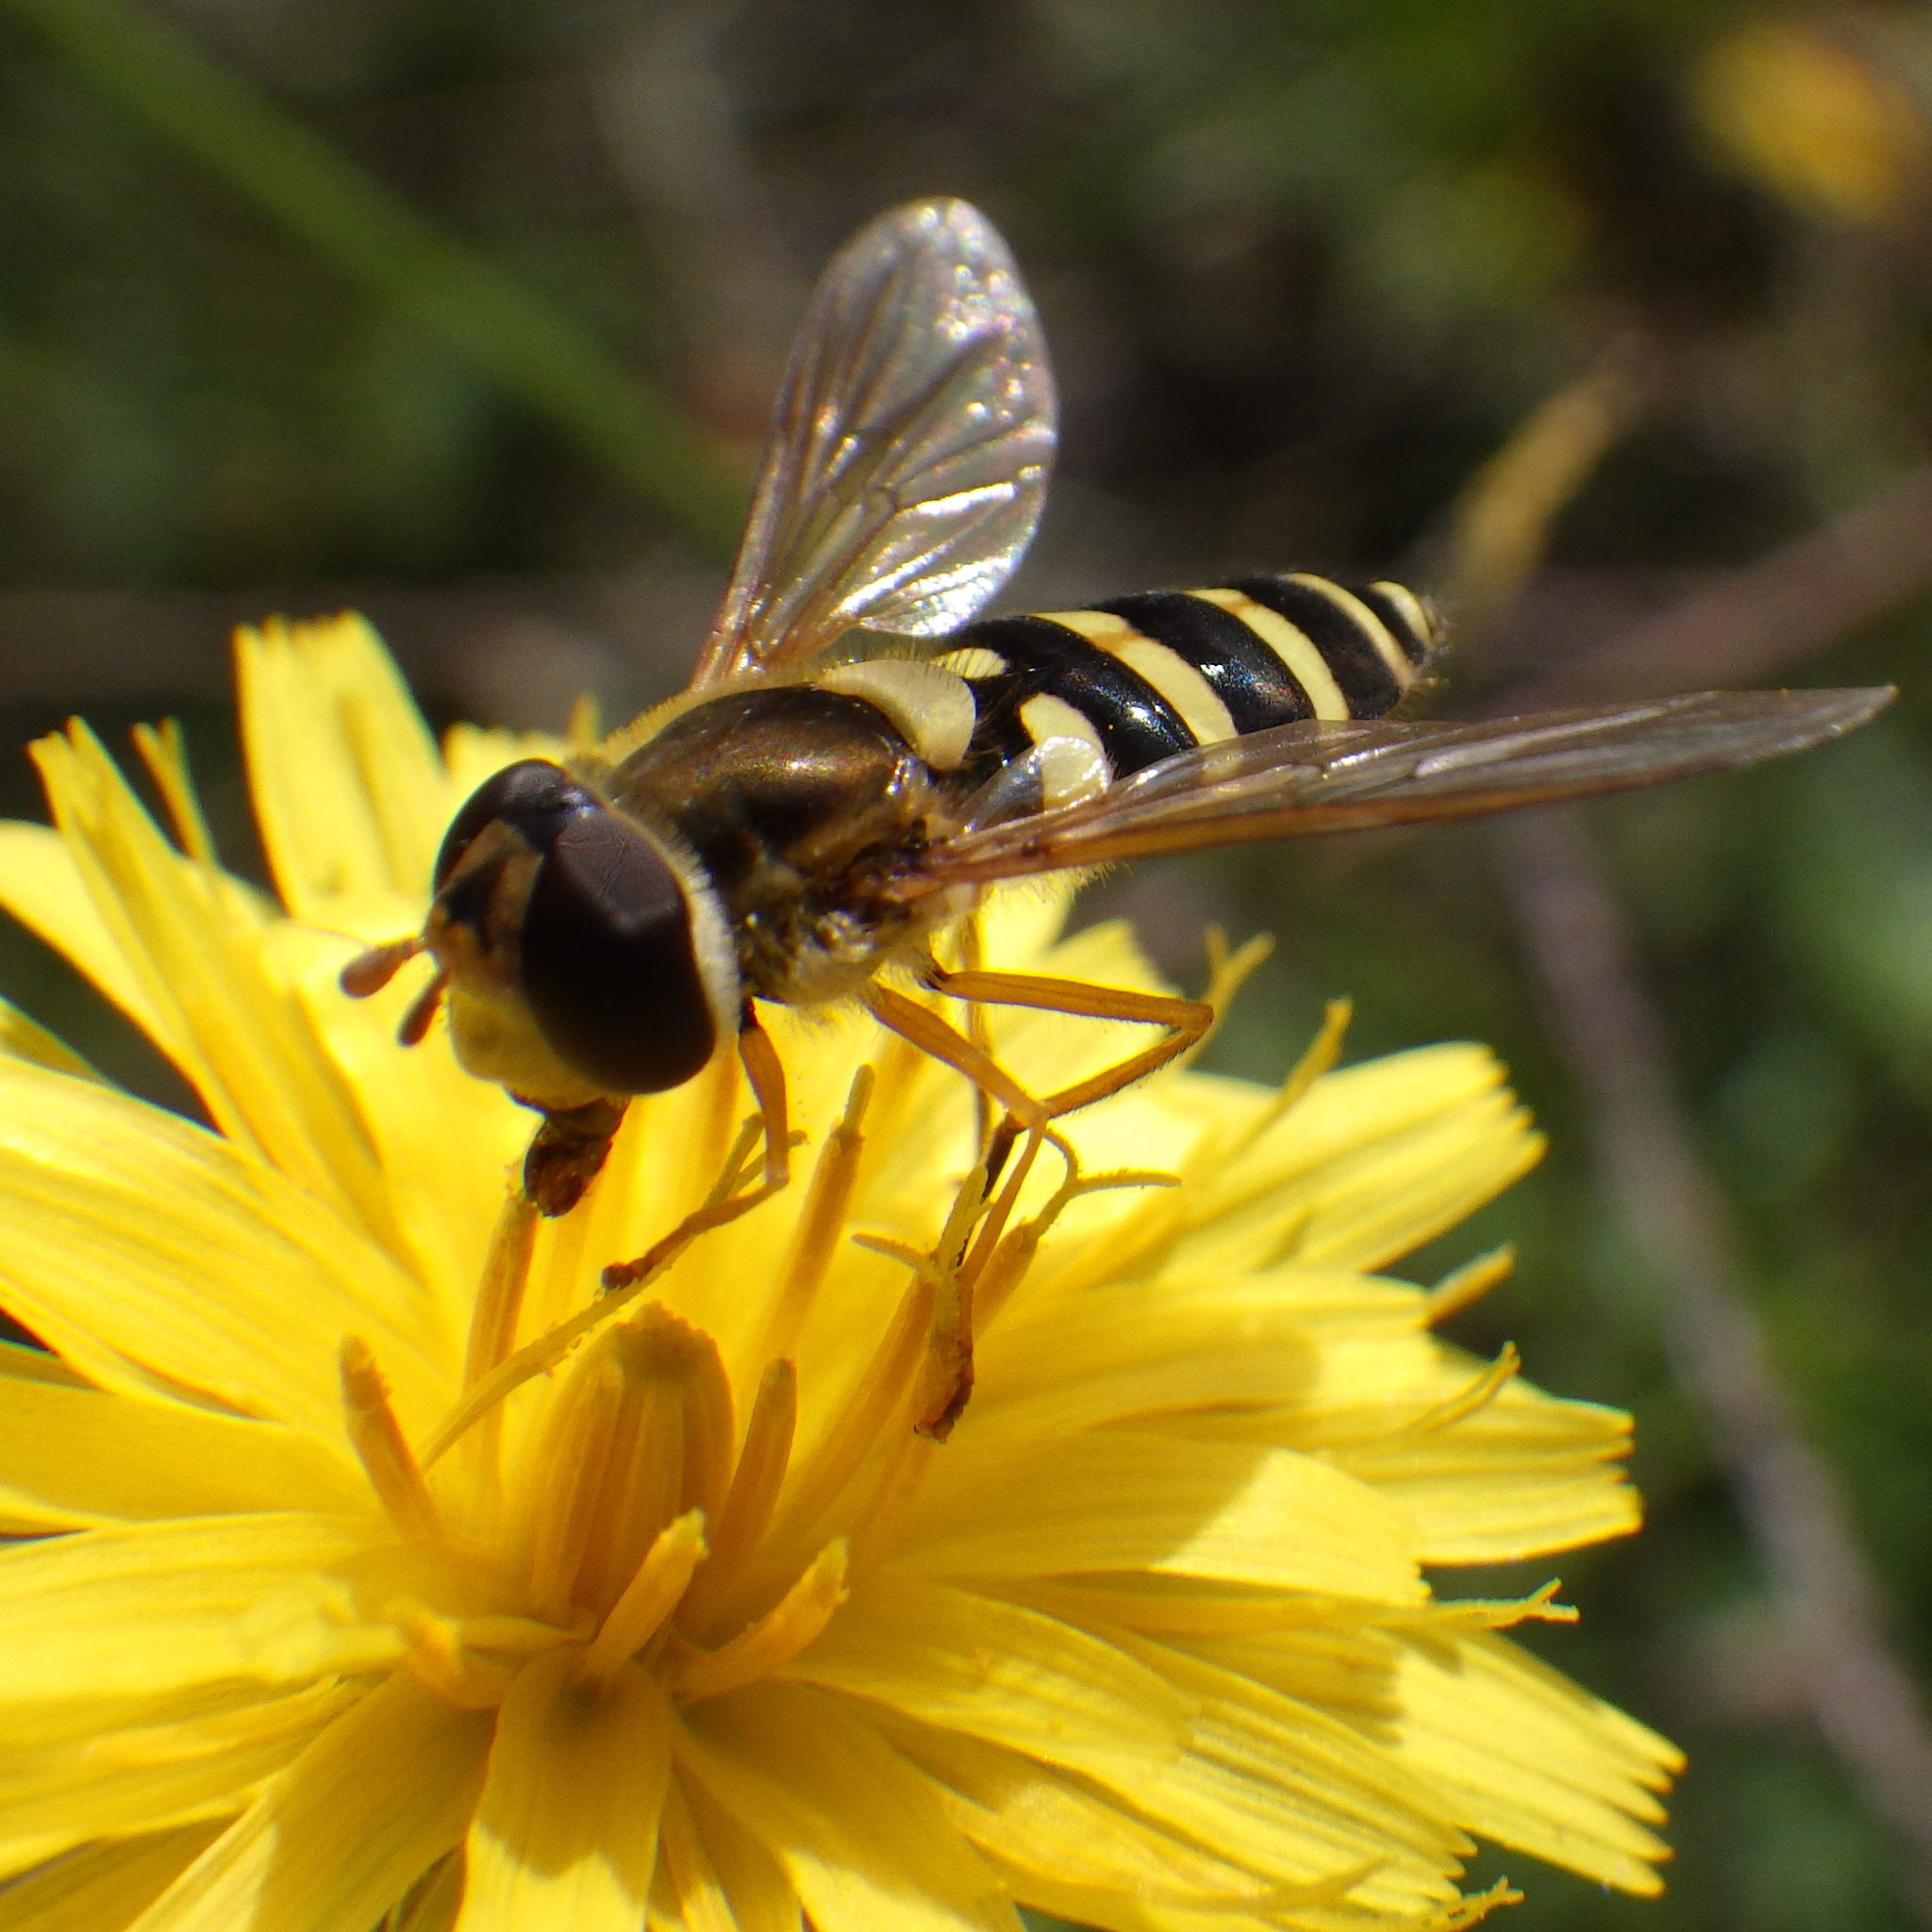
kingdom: Animalia
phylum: Arthropoda
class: Insecta
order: Diptera
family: Syrphidae
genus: Syrphus
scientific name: Syrphus ribesii
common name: Common flower fly
